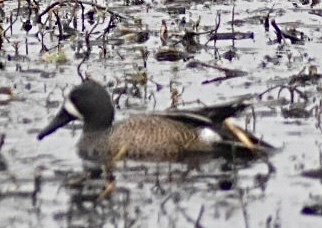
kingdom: Animalia
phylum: Chordata
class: Aves
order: Anseriformes
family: Anatidae
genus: Spatula
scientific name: Spatula discors
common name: Blue-winged teal
